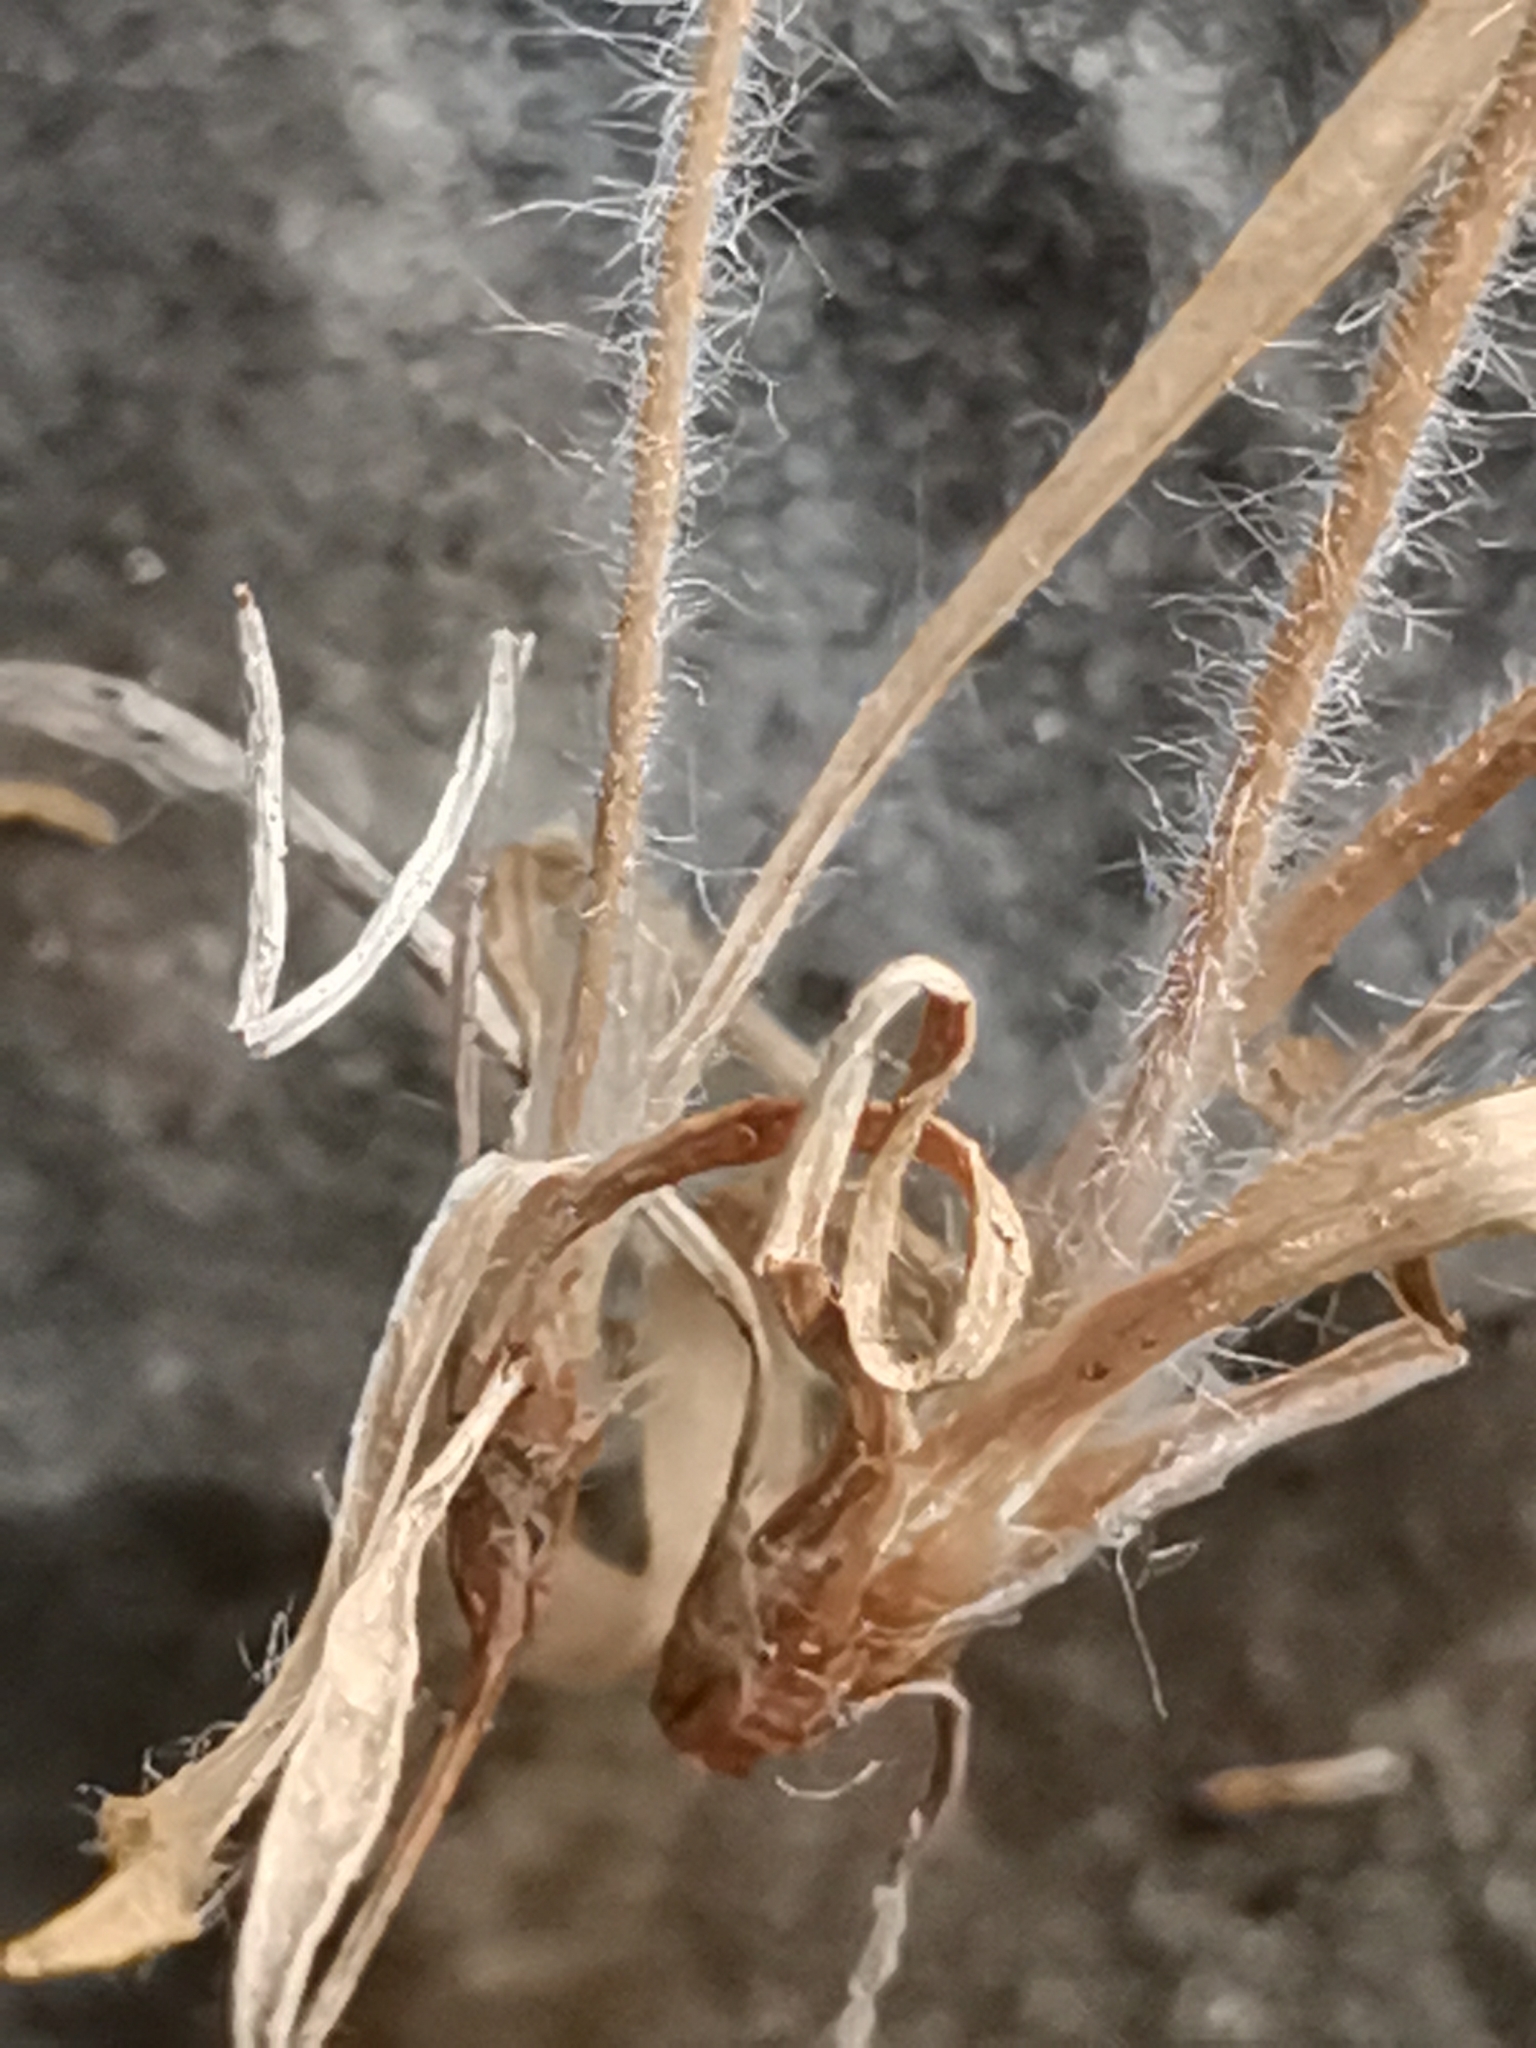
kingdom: Plantae
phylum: Tracheophyta
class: Magnoliopsida
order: Lamiales
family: Plantaginaceae
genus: Plantago
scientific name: Plantago bellardii
